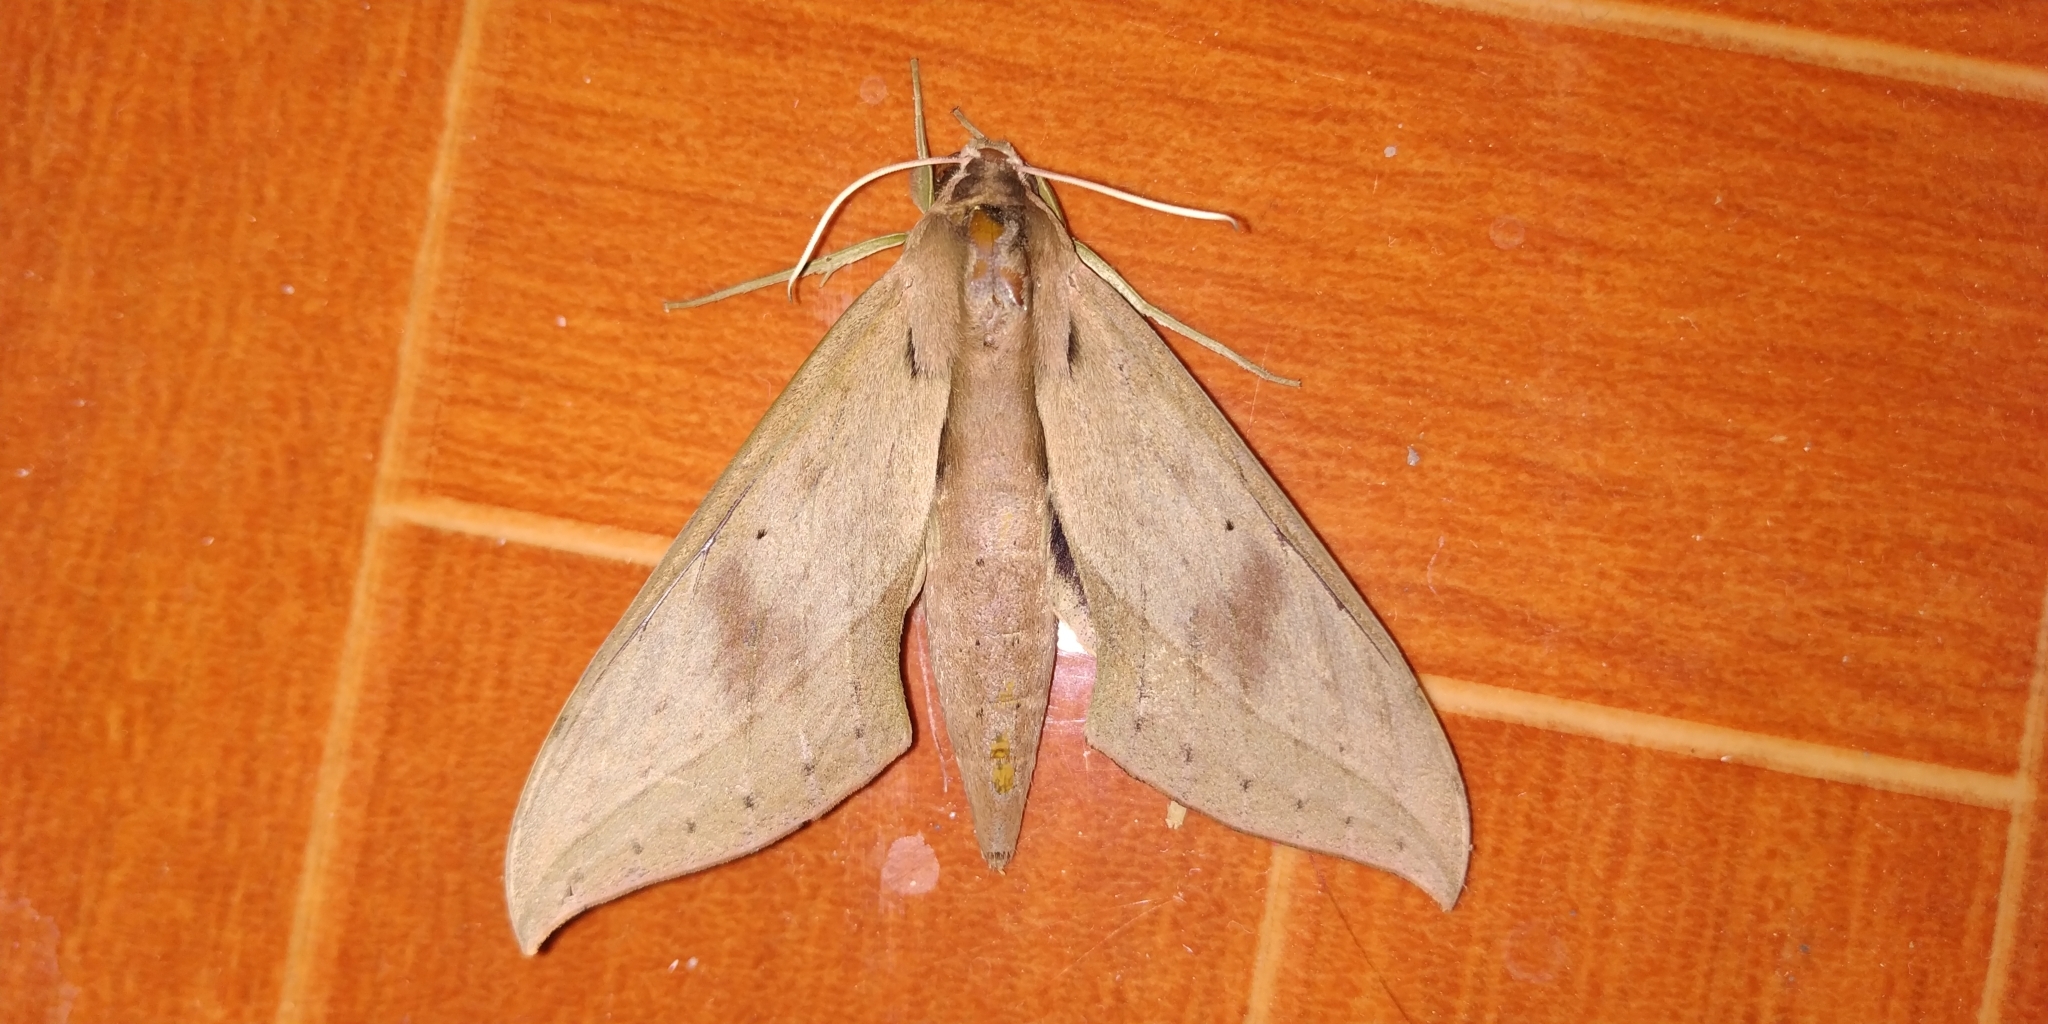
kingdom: Animalia
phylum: Arthropoda
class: Insecta
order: Lepidoptera
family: Sphingidae
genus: Xylophanes
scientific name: Xylophanes anubus
